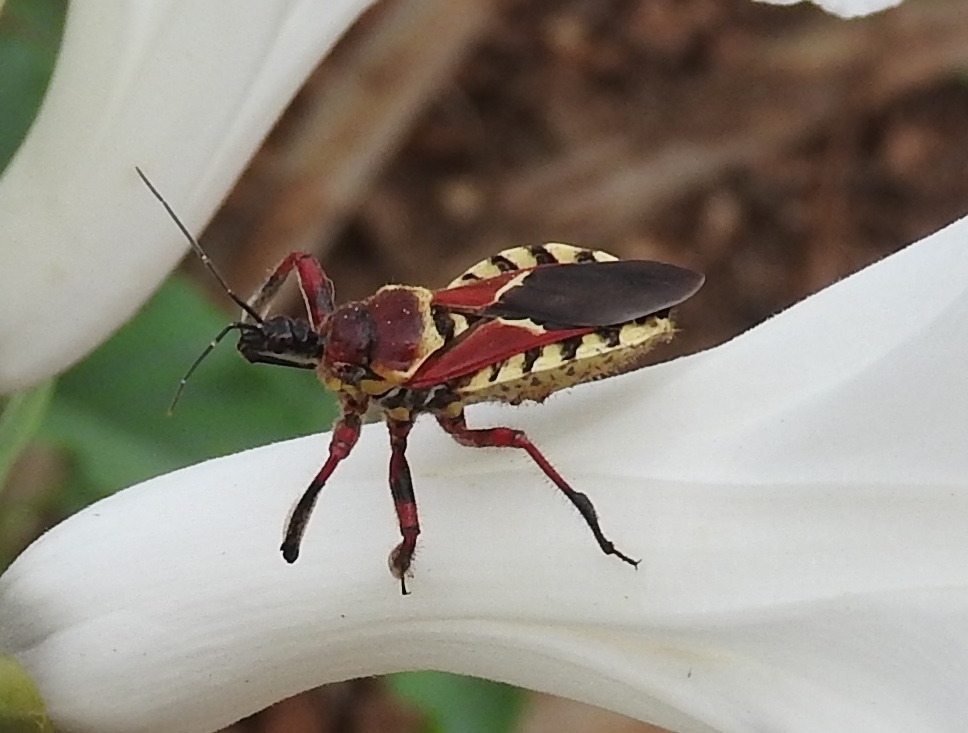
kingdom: Animalia
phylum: Arthropoda
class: Insecta
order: Hemiptera
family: Reduviidae
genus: Apiomerus
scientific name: Apiomerus flaviventris
